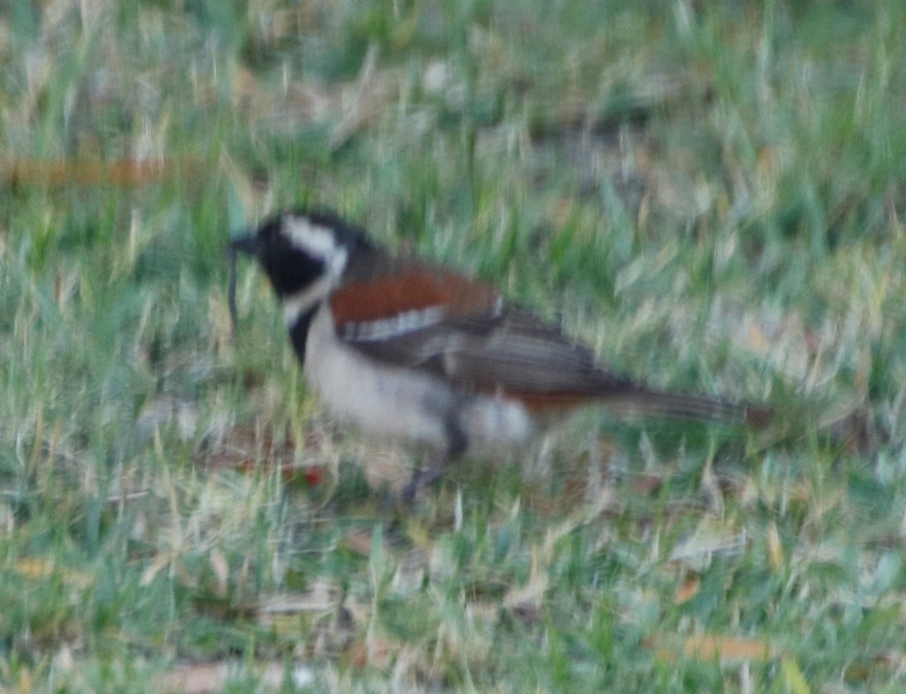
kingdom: Animalia
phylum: Chordata
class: Aves
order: Passeriformes
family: Passeridae
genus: Passer
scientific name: Passer melanurus
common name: Cape sparrow
